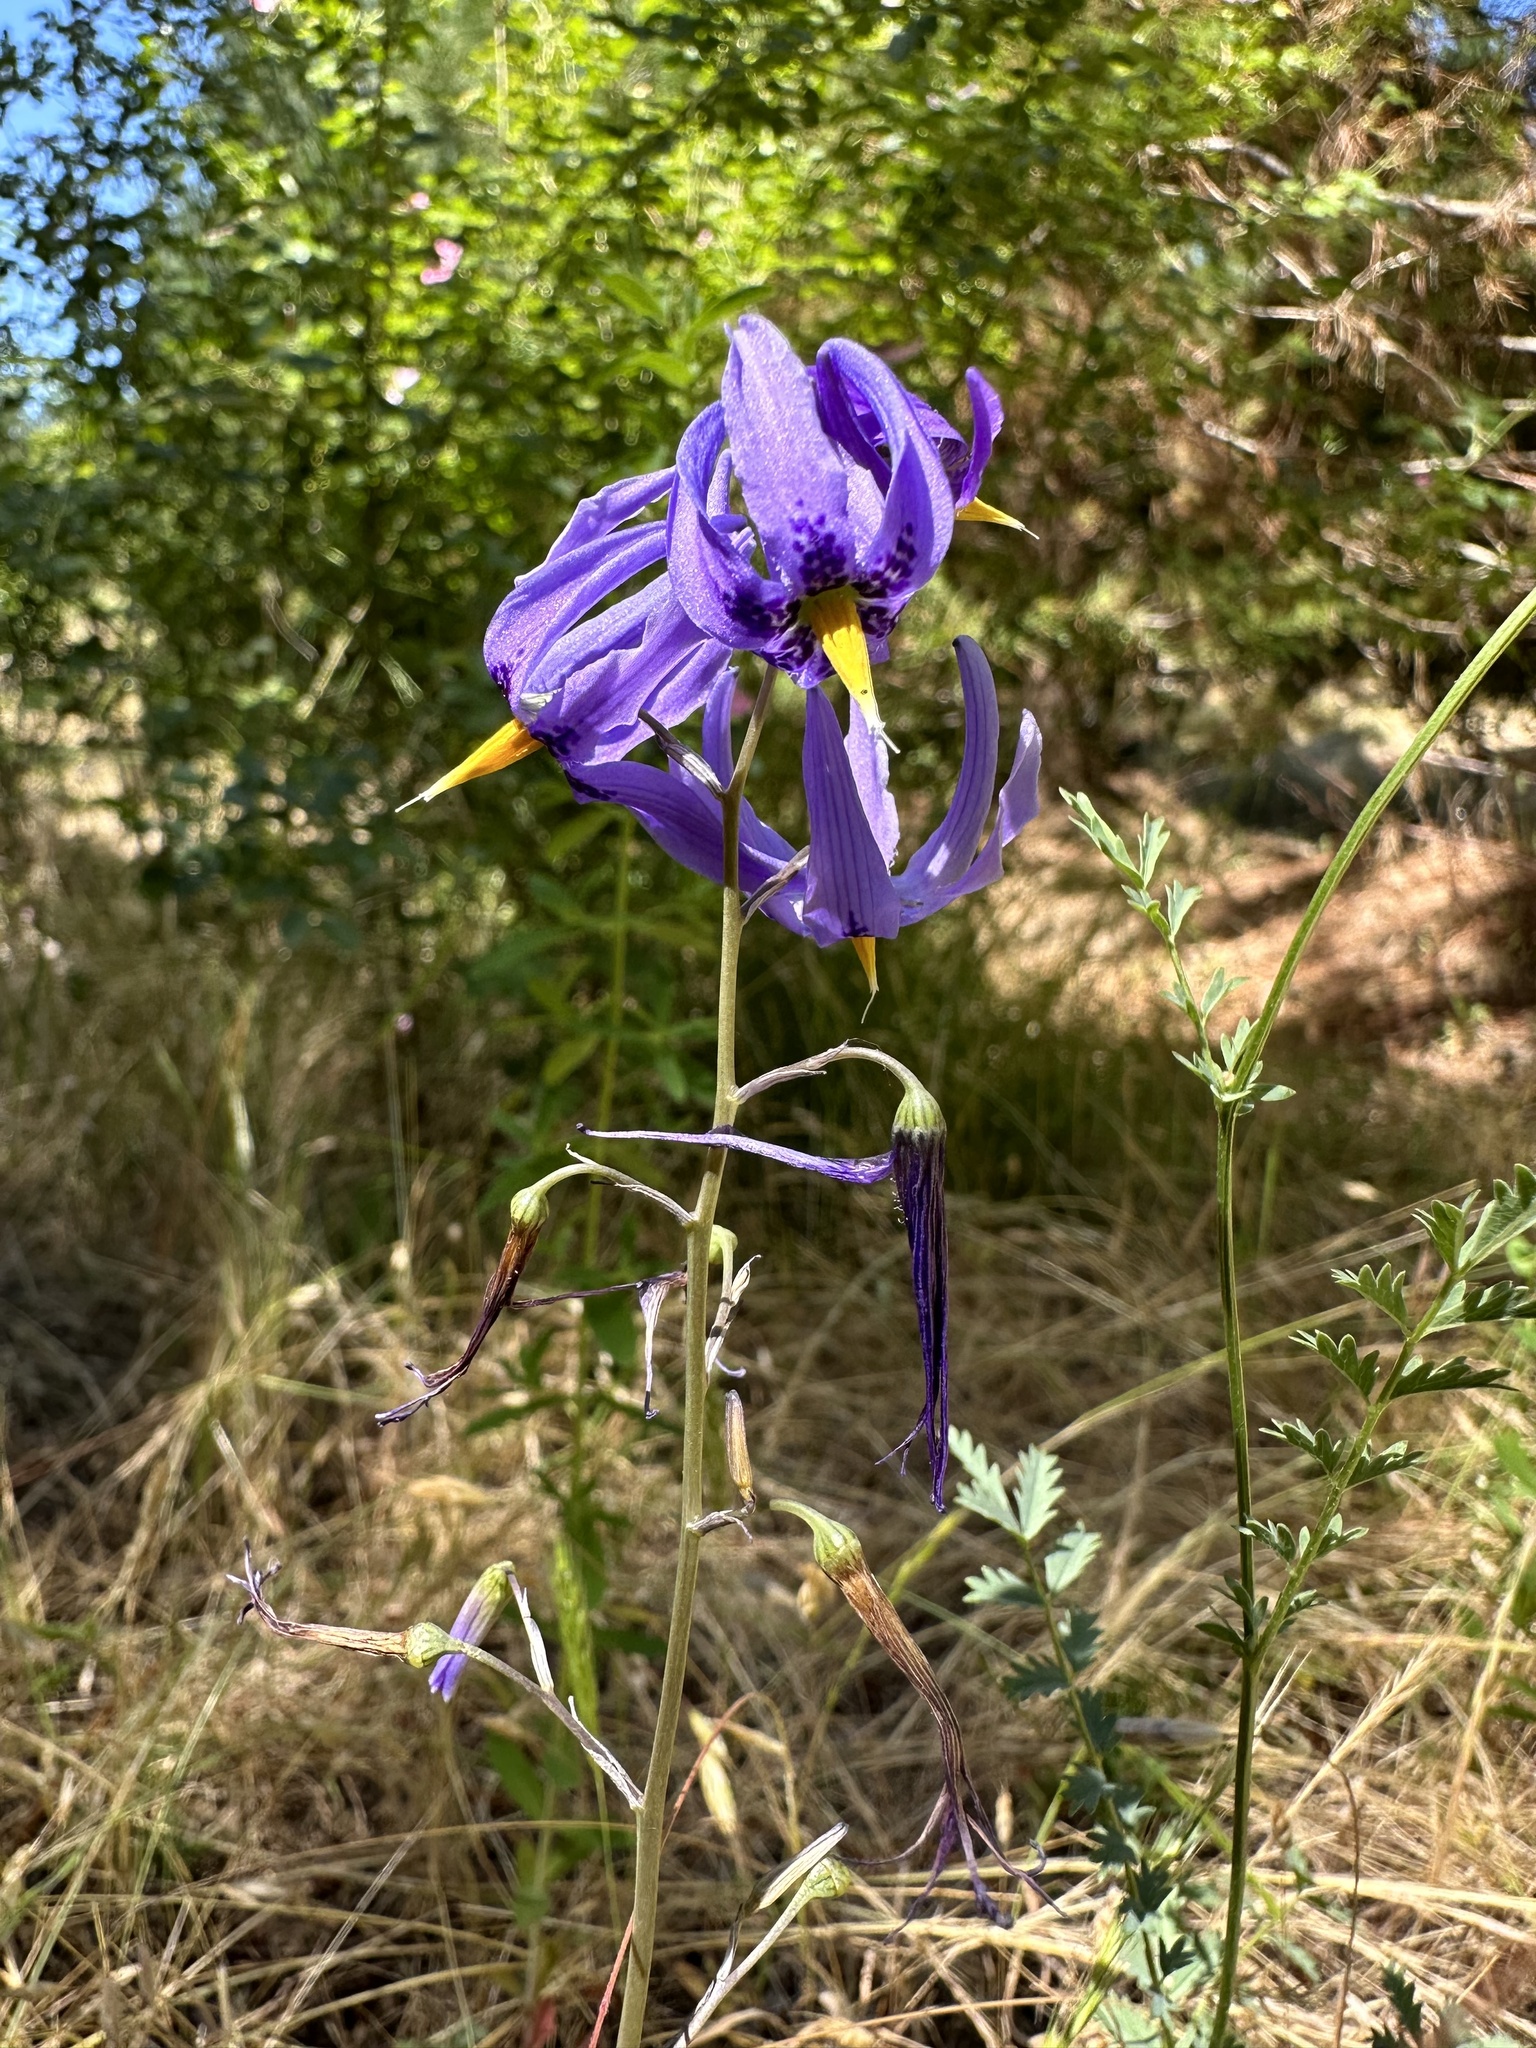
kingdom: Plantae
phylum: Tracheophyta
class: Liliopsida
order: Asparagales
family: Tecophilaeaceae
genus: Conanthera
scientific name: Conanthera bifolia
